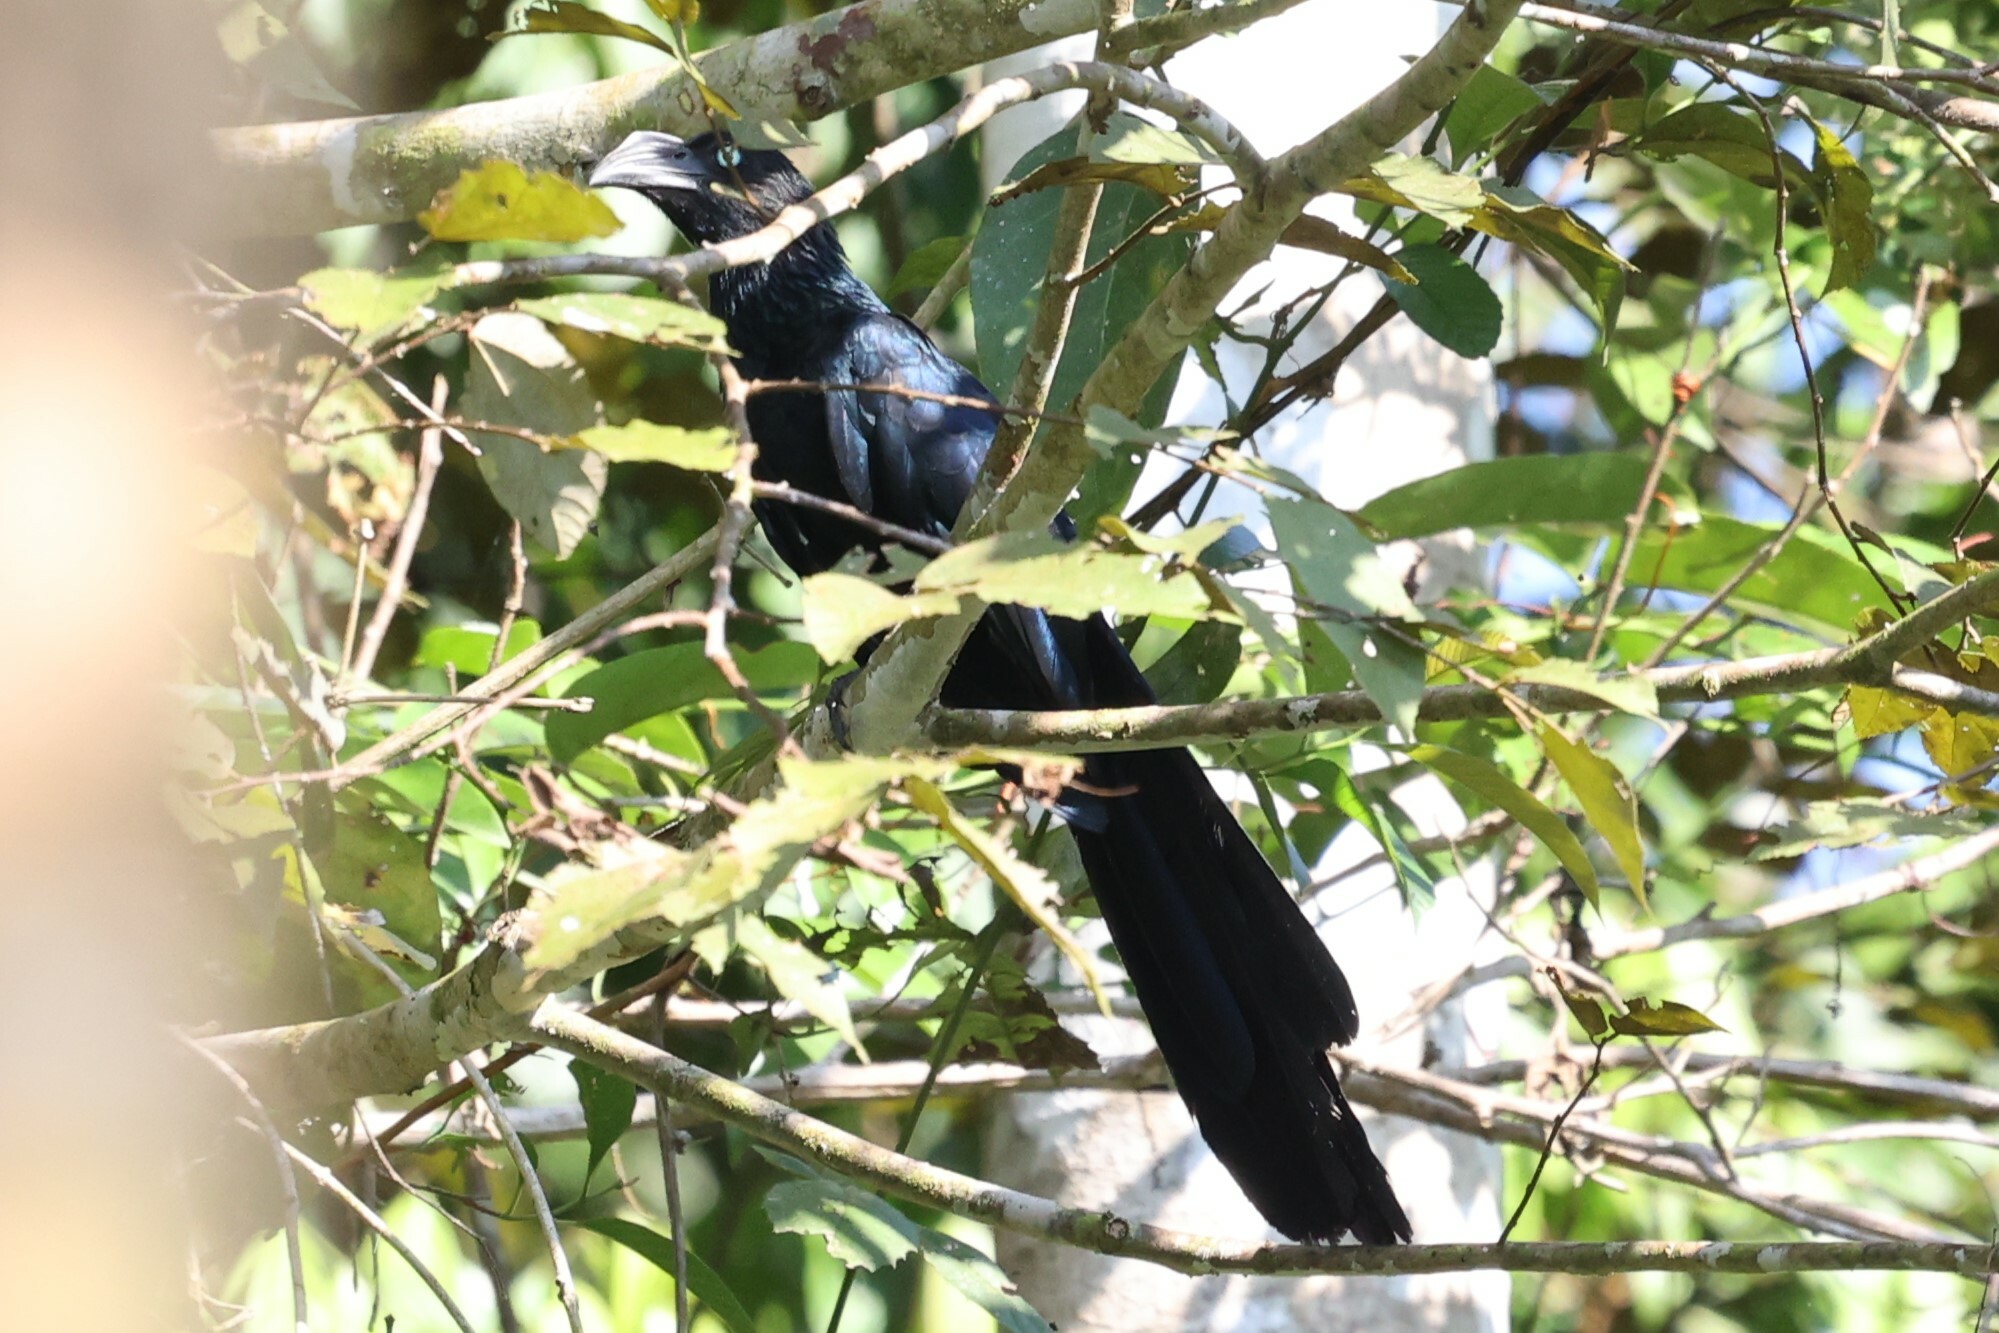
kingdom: Animalia
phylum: Chordata
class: Aves
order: Cuculiformes
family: Cuculidae
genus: Crotophaga
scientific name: Crotophaga major
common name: Greater ani
